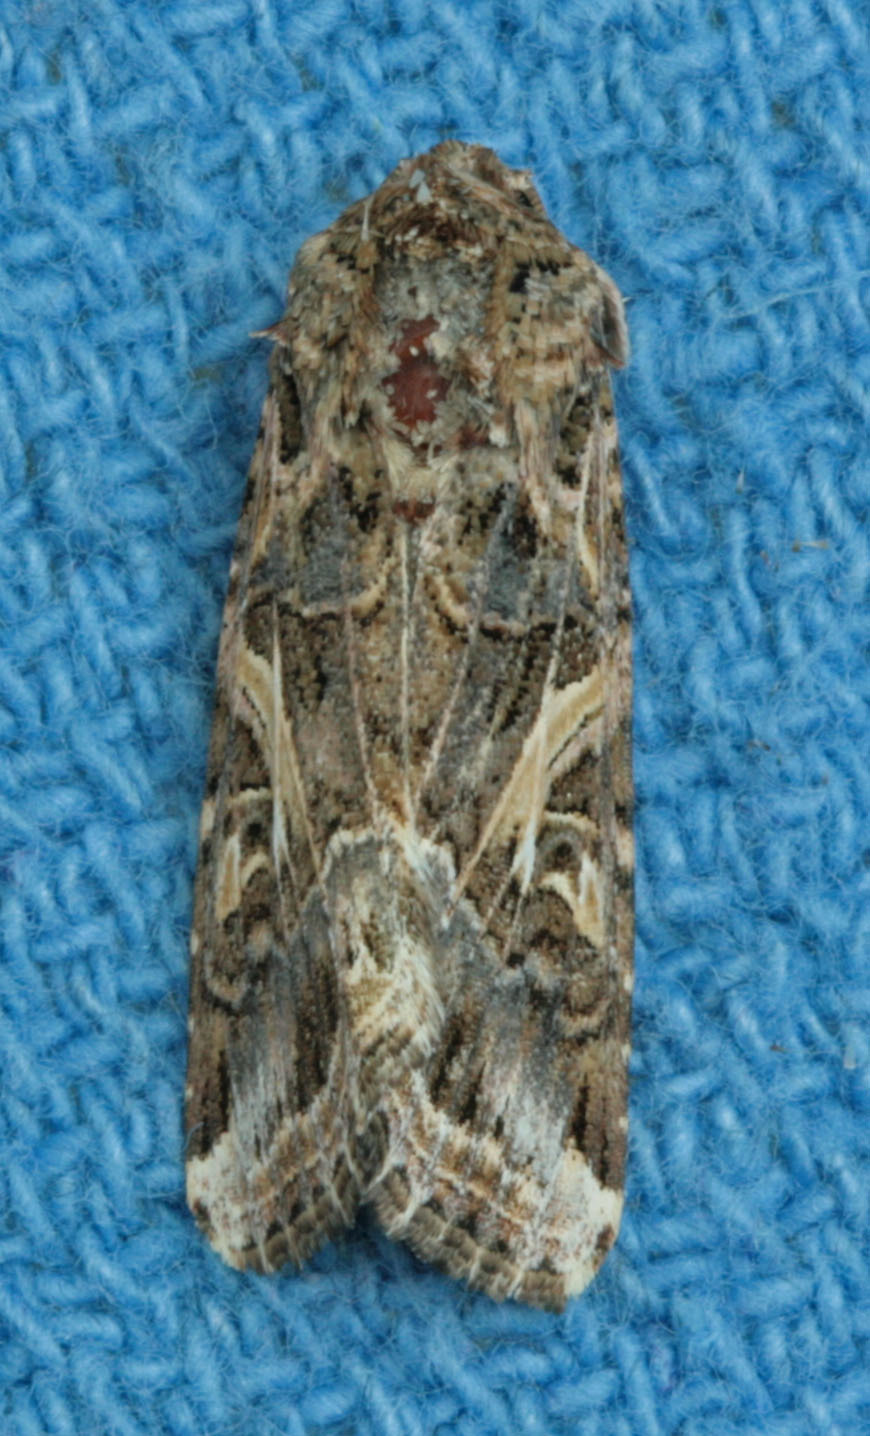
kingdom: Animalia
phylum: Arthropoda
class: Insecta
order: Lepidoptera
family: Noctuidae
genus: Spodoptera
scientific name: Spodoptera ornithogalli
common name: Yellow-striped armyworm
